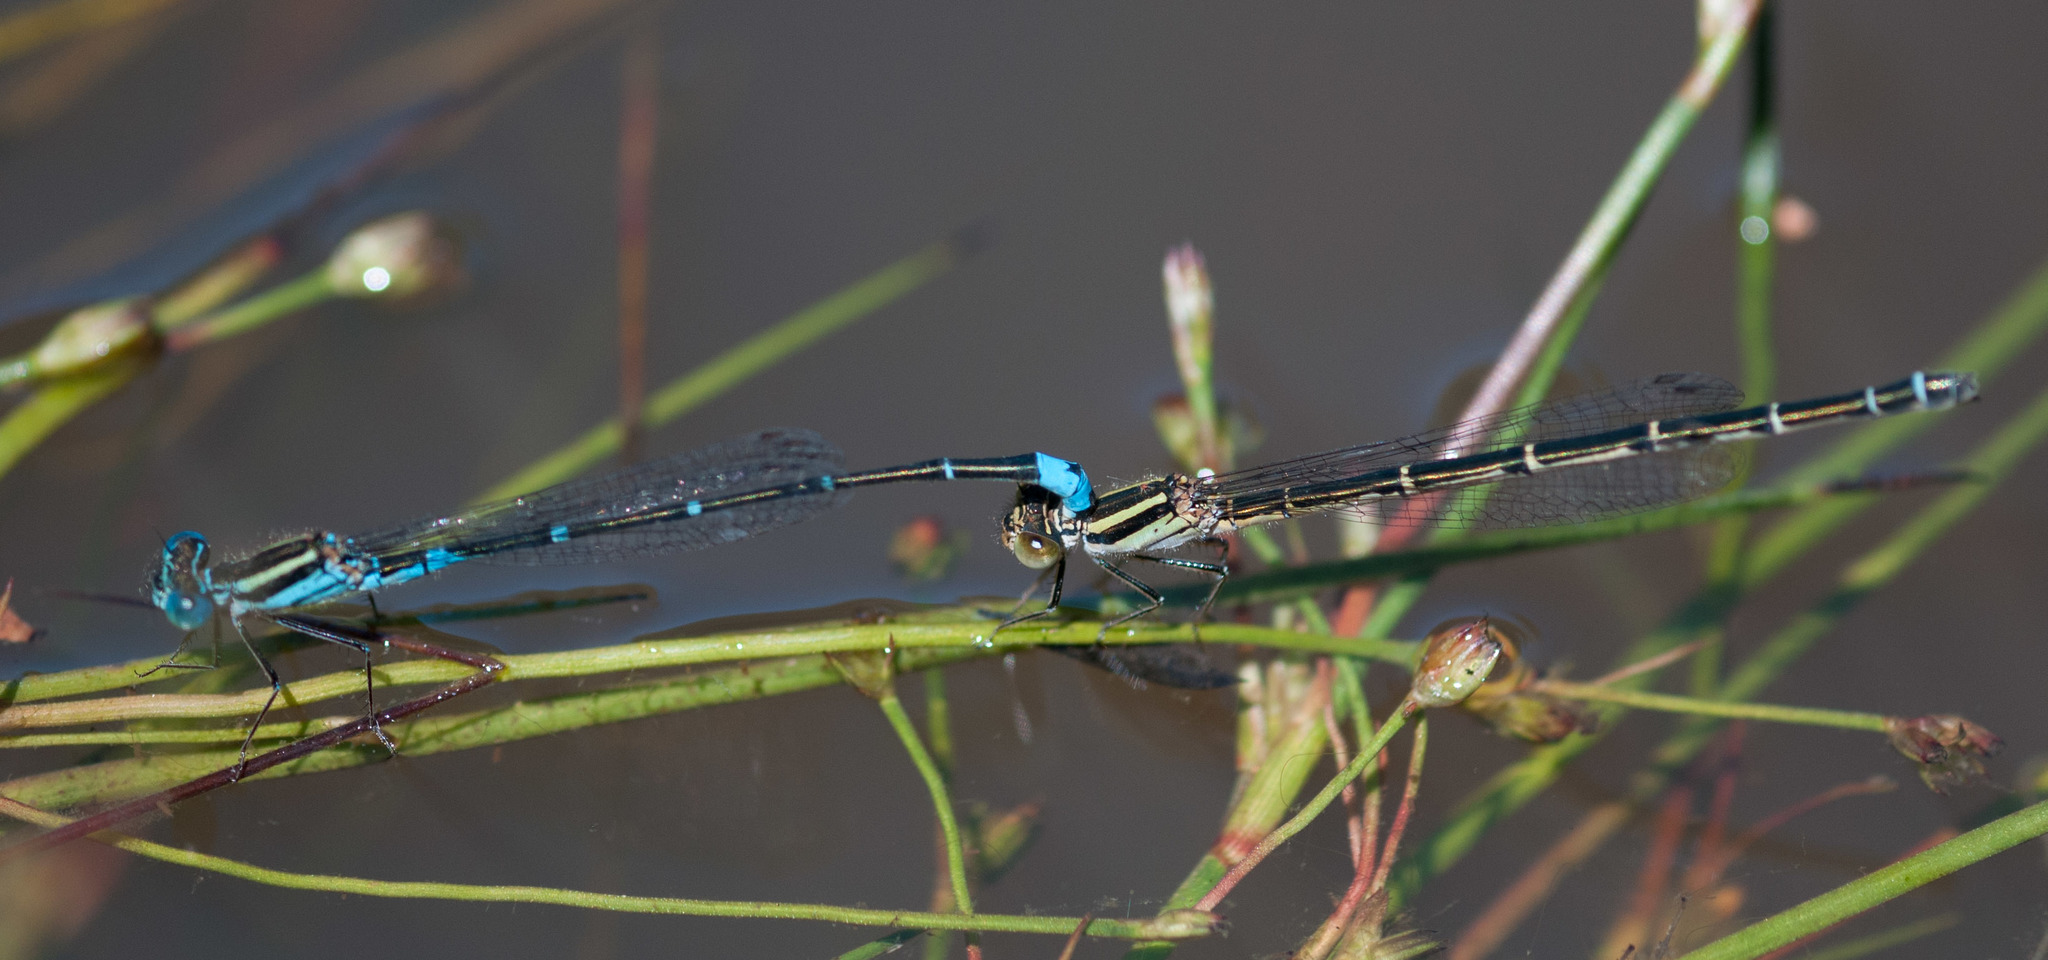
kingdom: Animalia
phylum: Arthropoda
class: Insecta
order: Odonata
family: Coenagrionidae
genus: Austroagrion
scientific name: Austroagrion watsoni
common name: Eastern billabongfly
